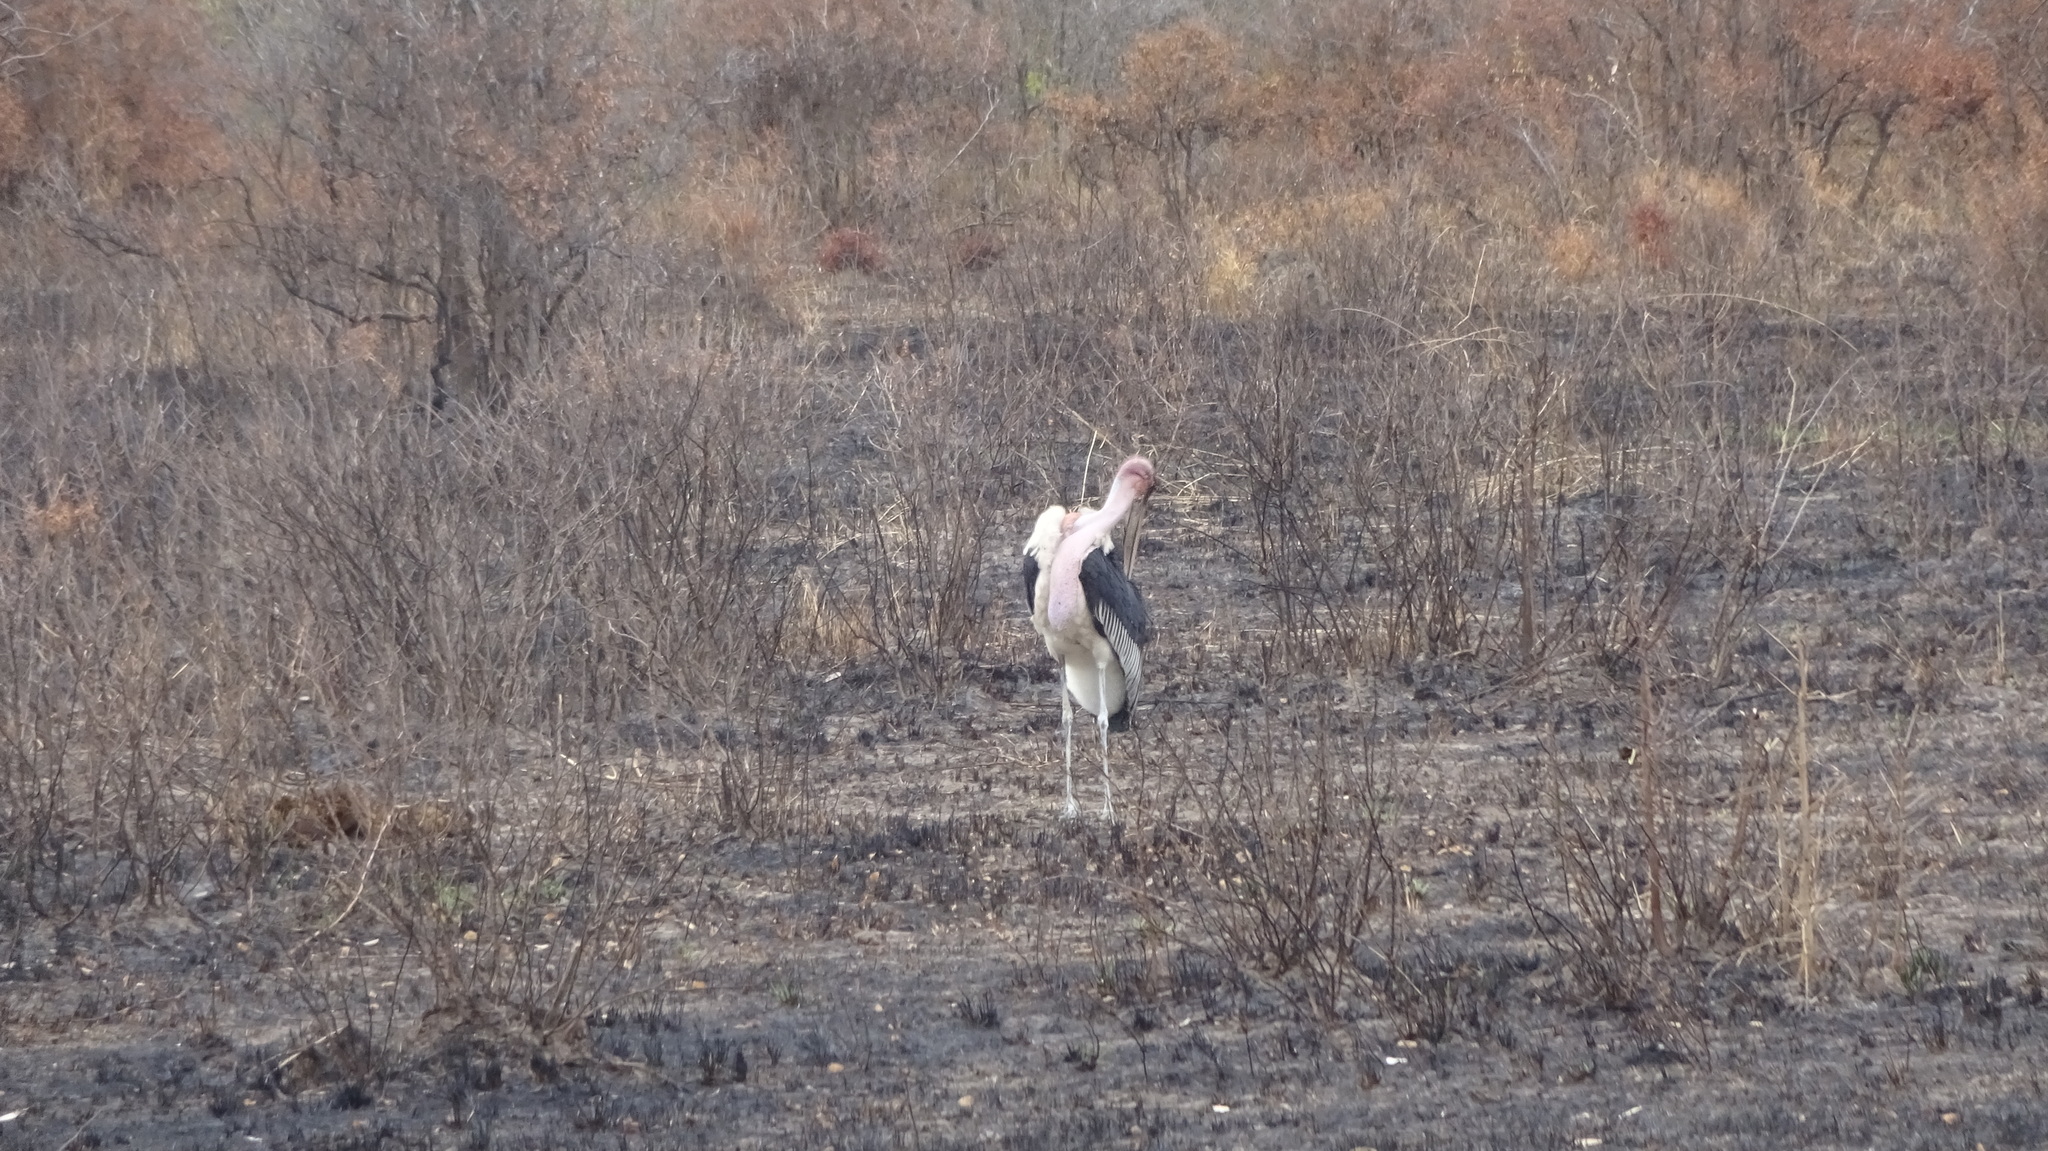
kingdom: Animalia
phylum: Chordata
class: Aves
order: Ciconiiformes
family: Ciconiidae
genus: Leptoptilos
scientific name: Leptoptilos crumenifer
